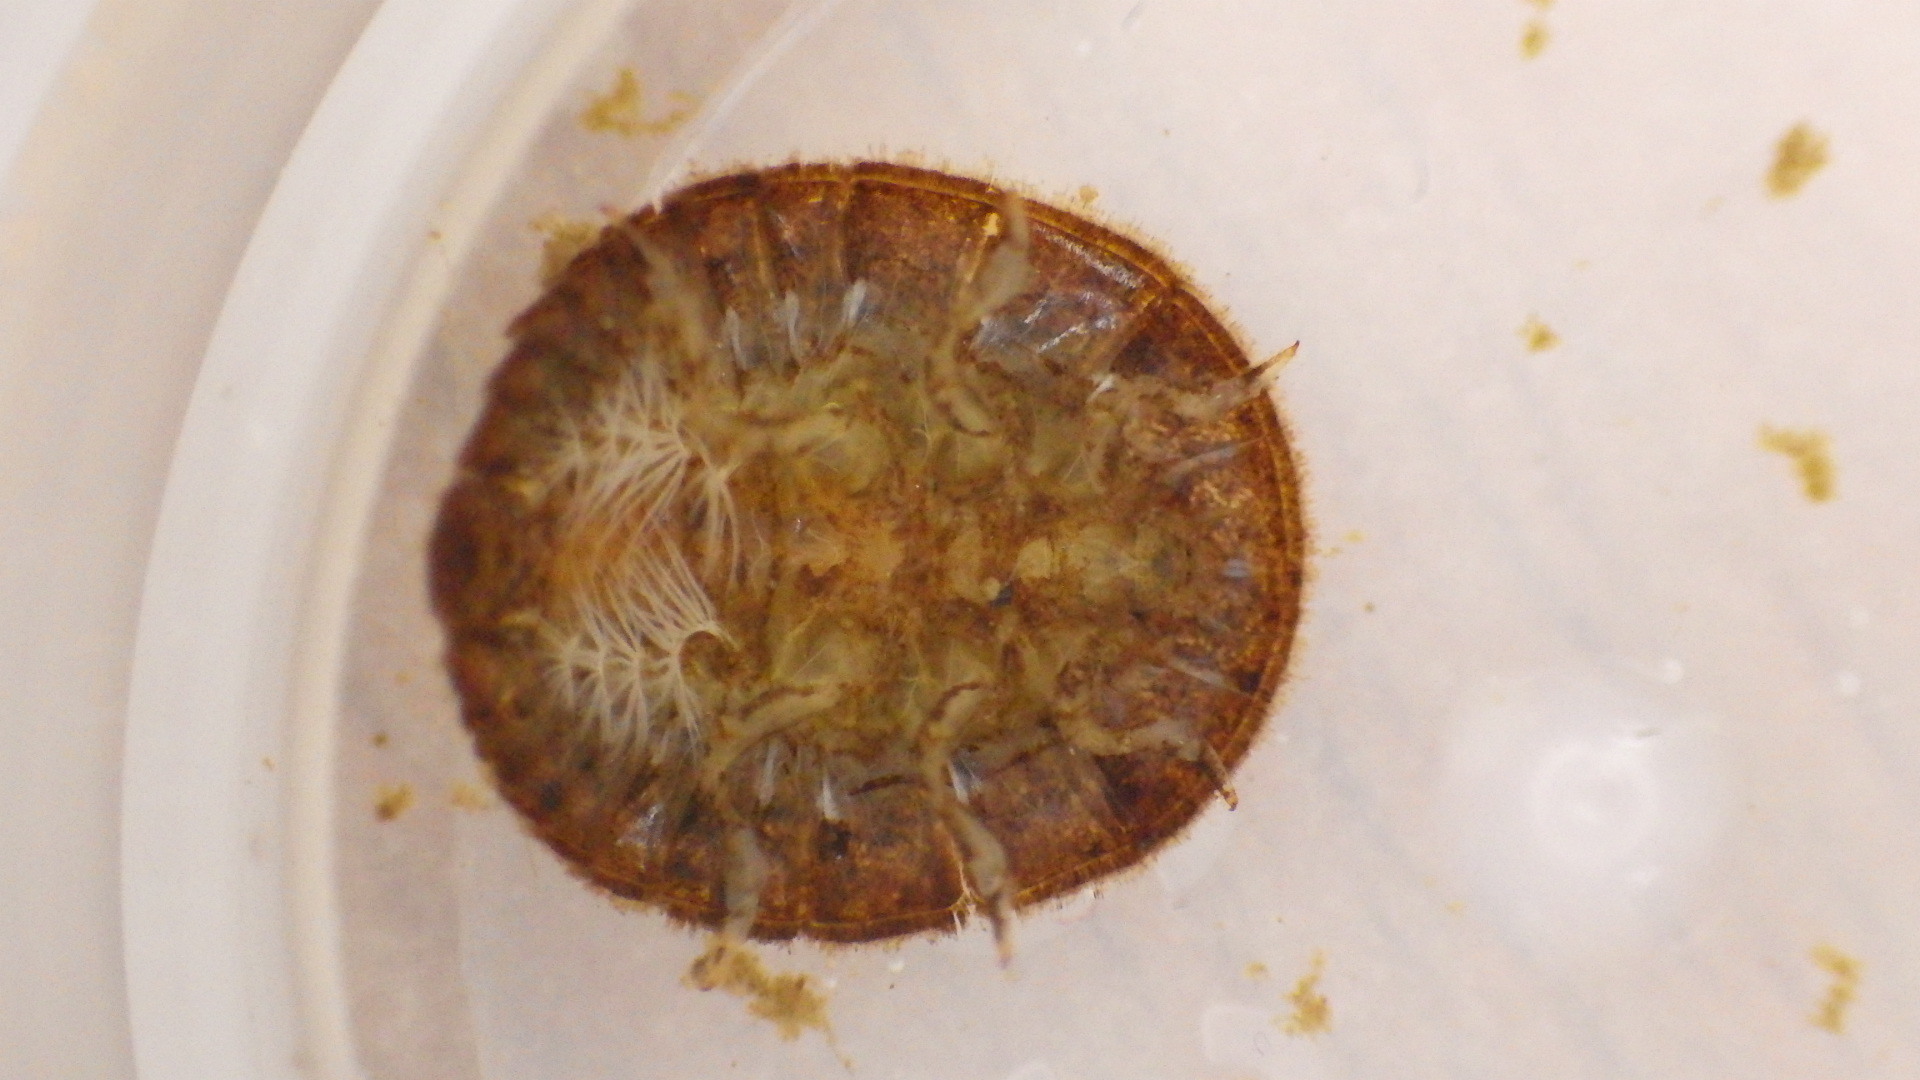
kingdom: Animalia
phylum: Arthropoda
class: Insecta
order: Coleoptera
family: Psephenidae
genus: Psephenus
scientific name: Psephenus herricki
